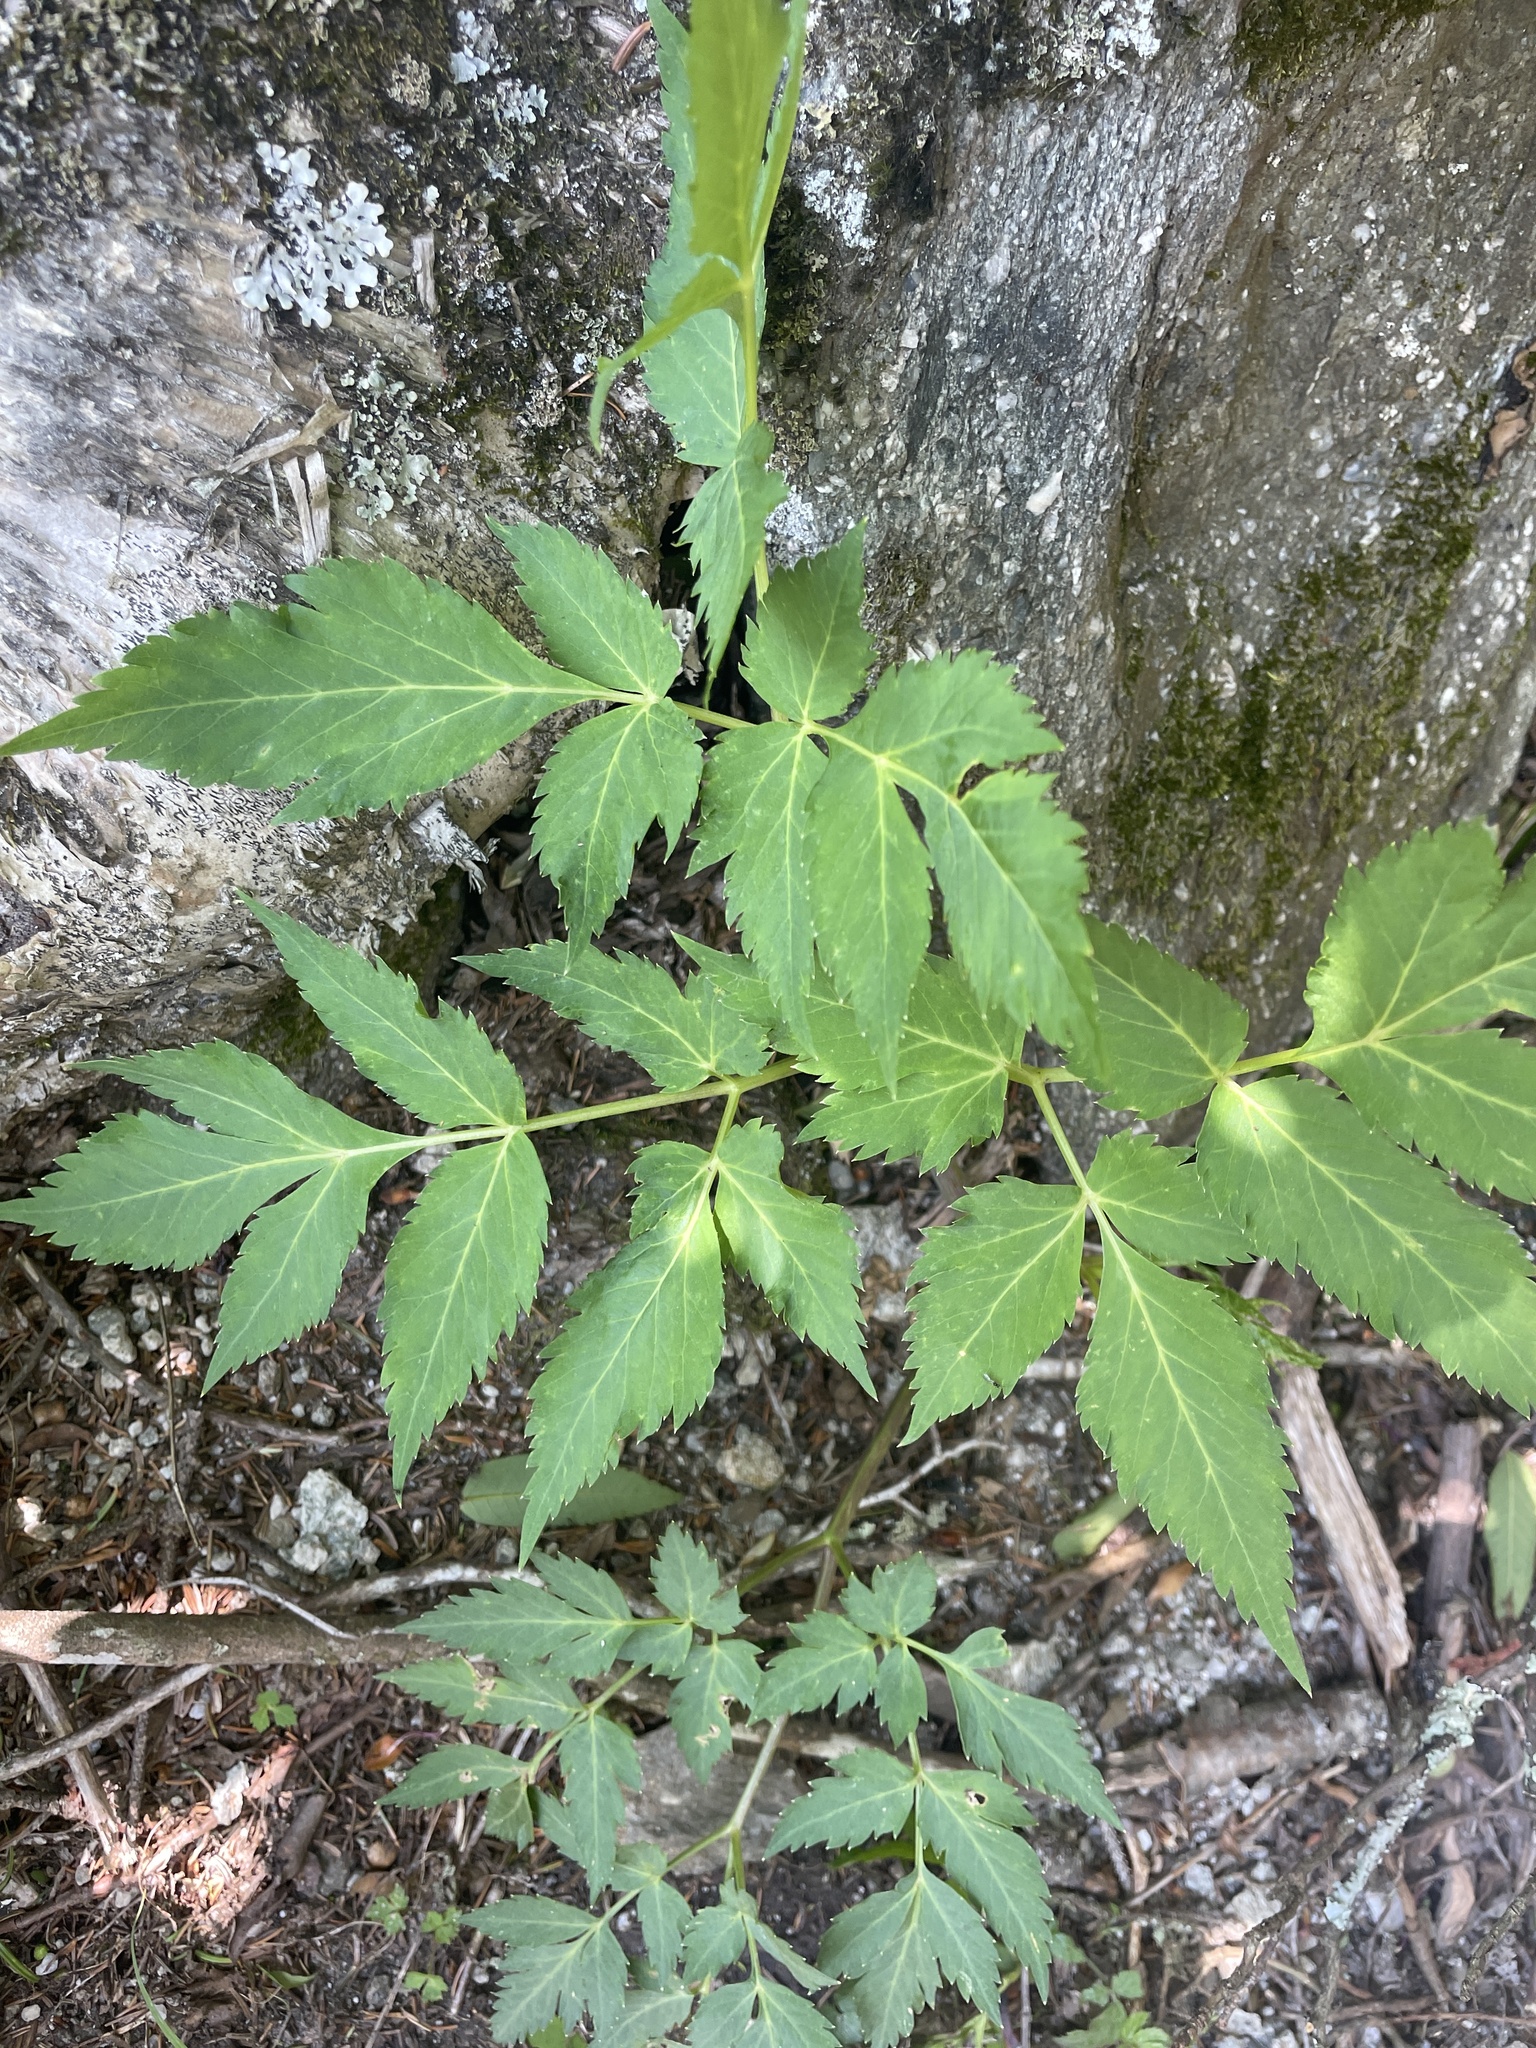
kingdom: Plantae
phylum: Tracheophyta
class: Magnoliopsida
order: Apiales
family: Apiaceae
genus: Angelica
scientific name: Angelica triquinata
